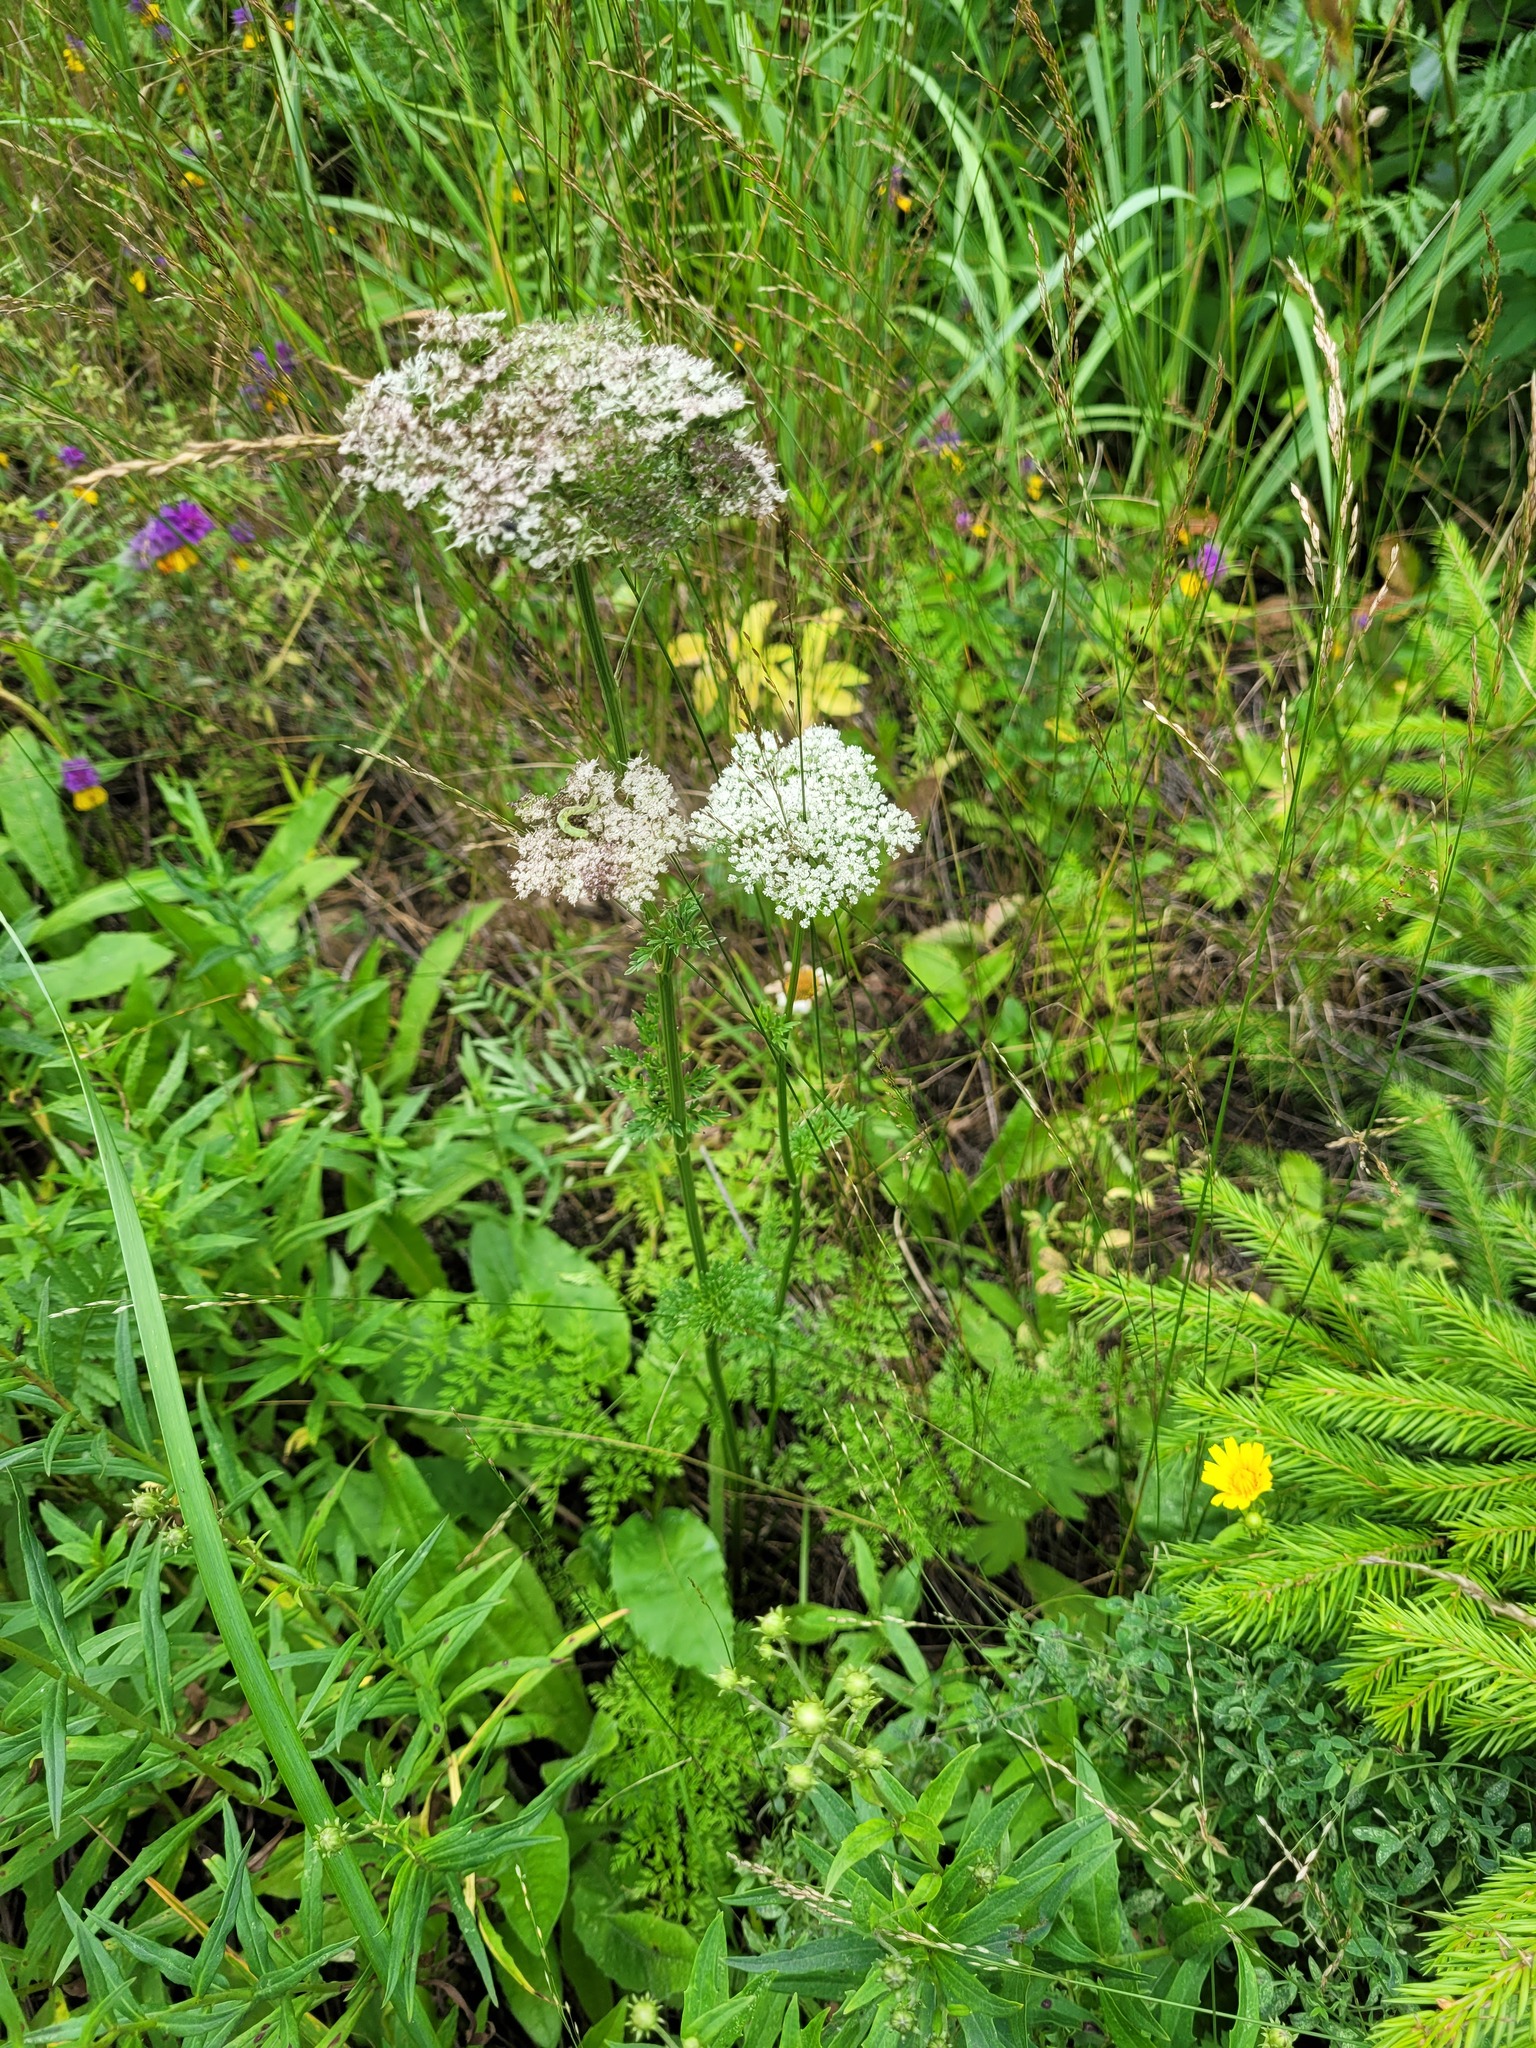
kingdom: Plantae
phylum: Tracheophyta
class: Magnoliopsida
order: Apiales
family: Apiaceae
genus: Selinum
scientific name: Selinum carvifolia
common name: Cambridge milk-parsley
